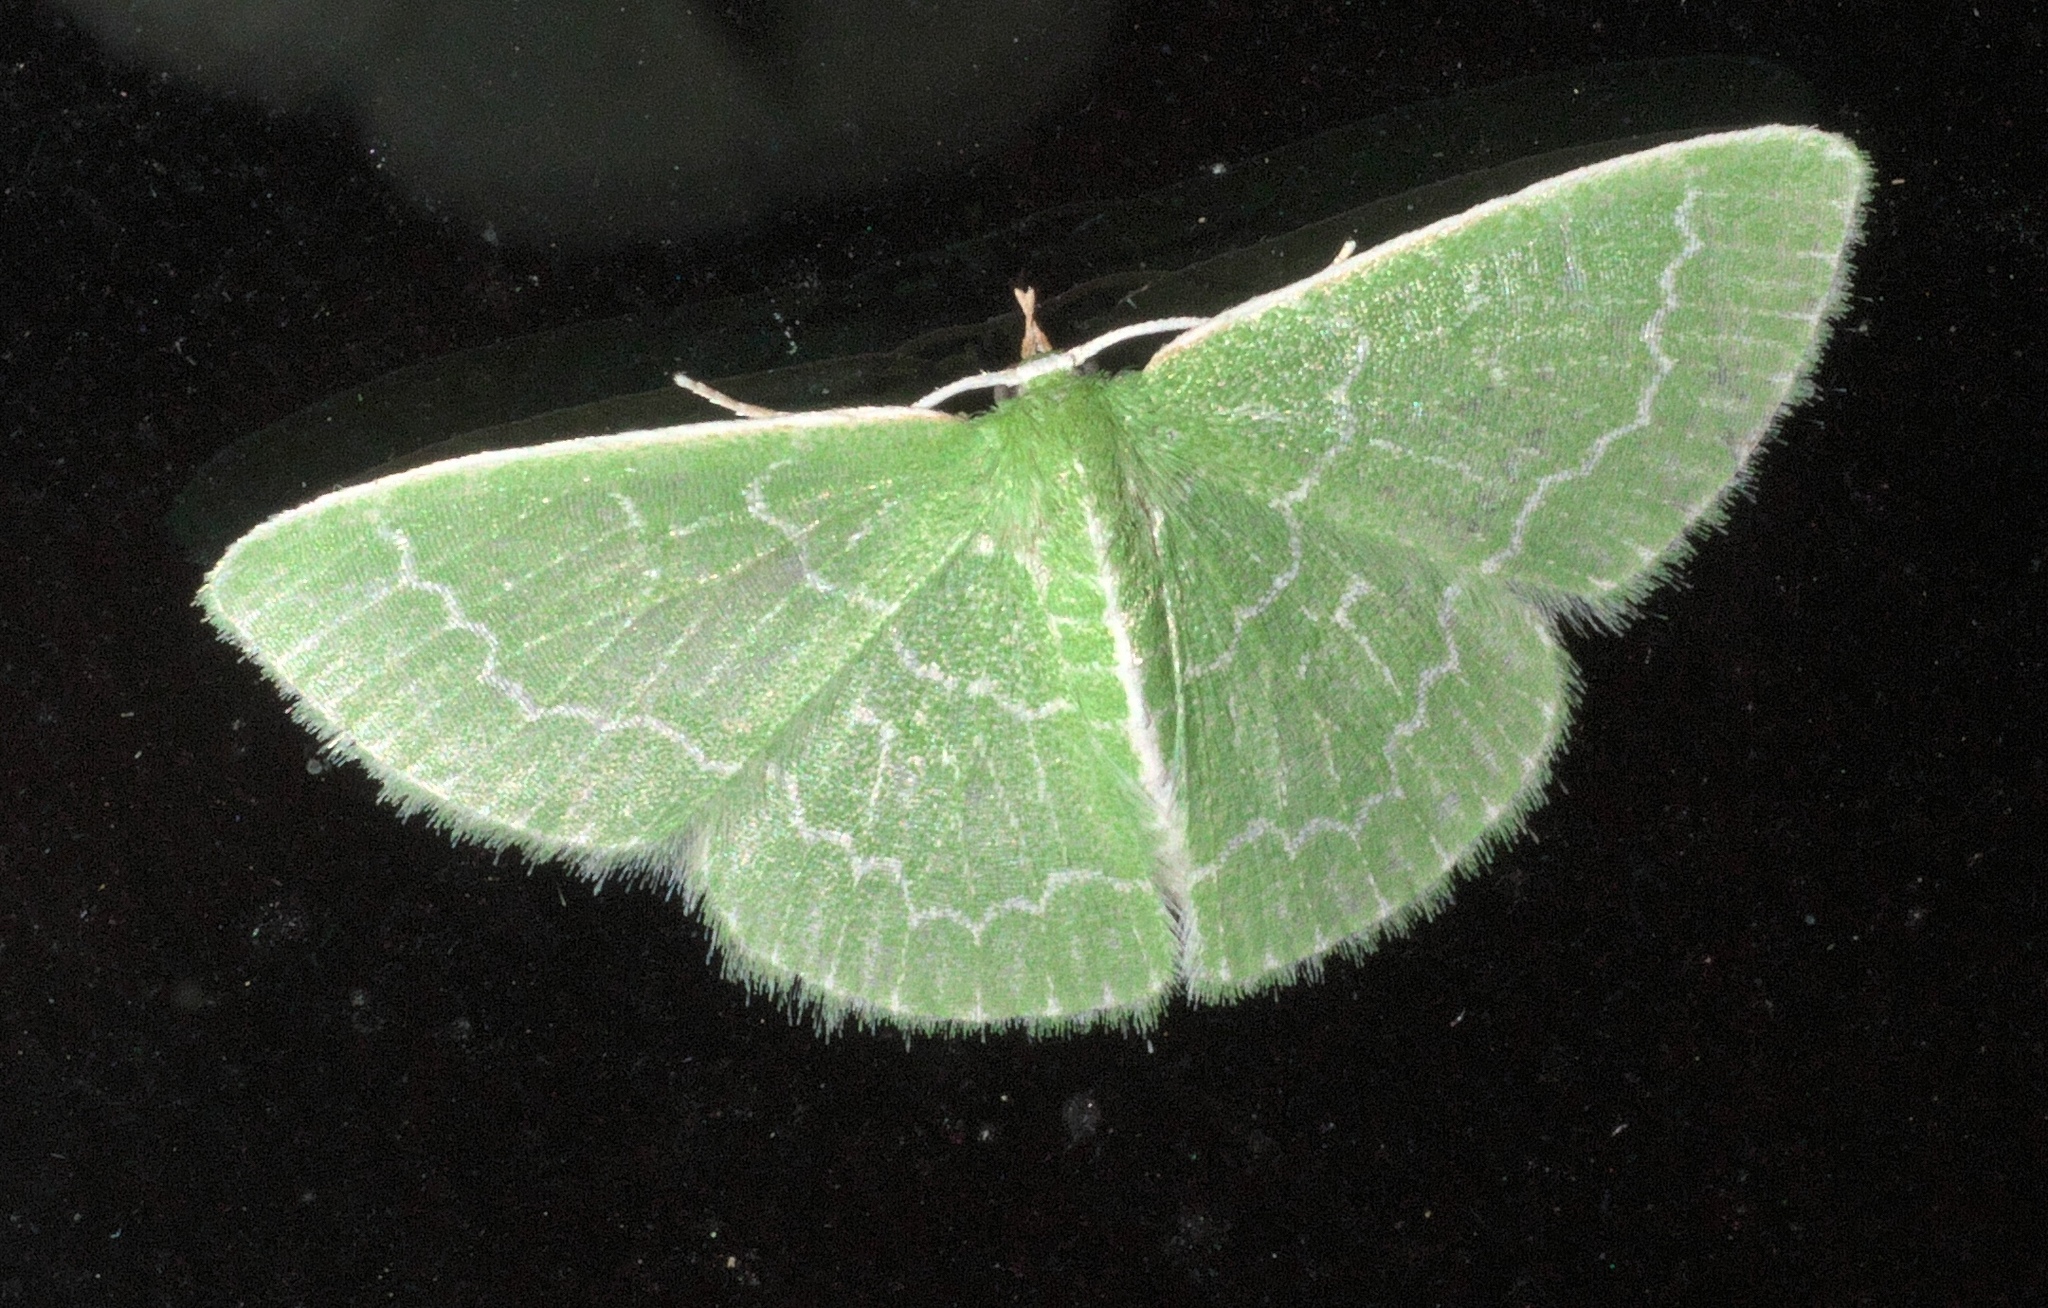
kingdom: Animalia
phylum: Arthropoda
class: Insecta
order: Lepidoptera
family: Geometridae
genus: Synchlora
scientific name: Synchlora frondaria
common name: Southern emerald
